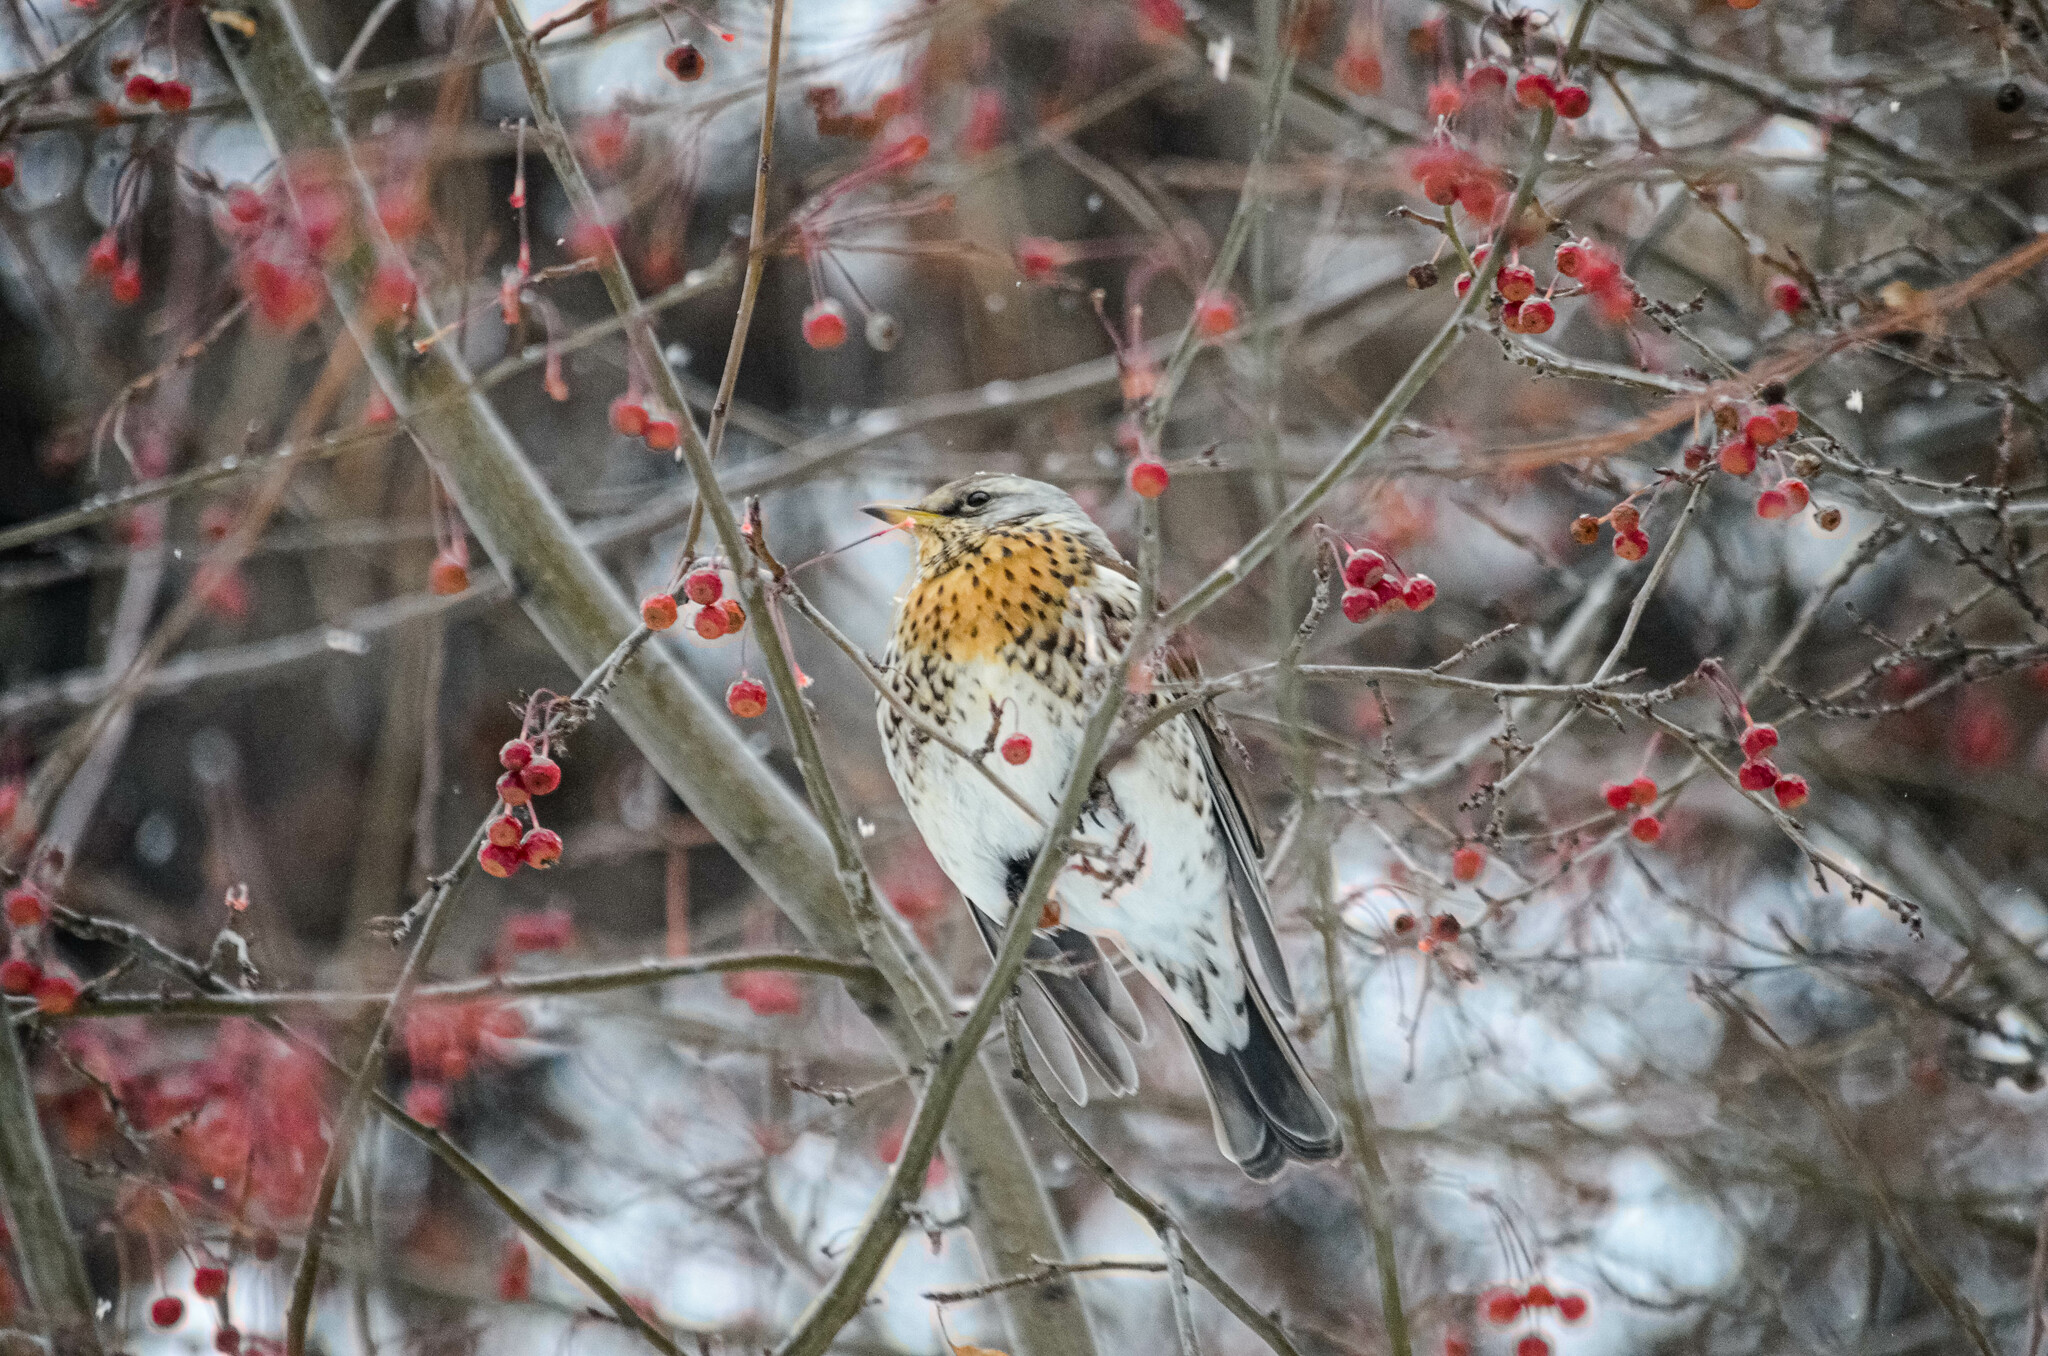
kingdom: Animalia
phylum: Chordata
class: Aves
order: Passeriformes
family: Turdidae
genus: Turdus
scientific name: Turdus pilaris
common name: Fieldfare
